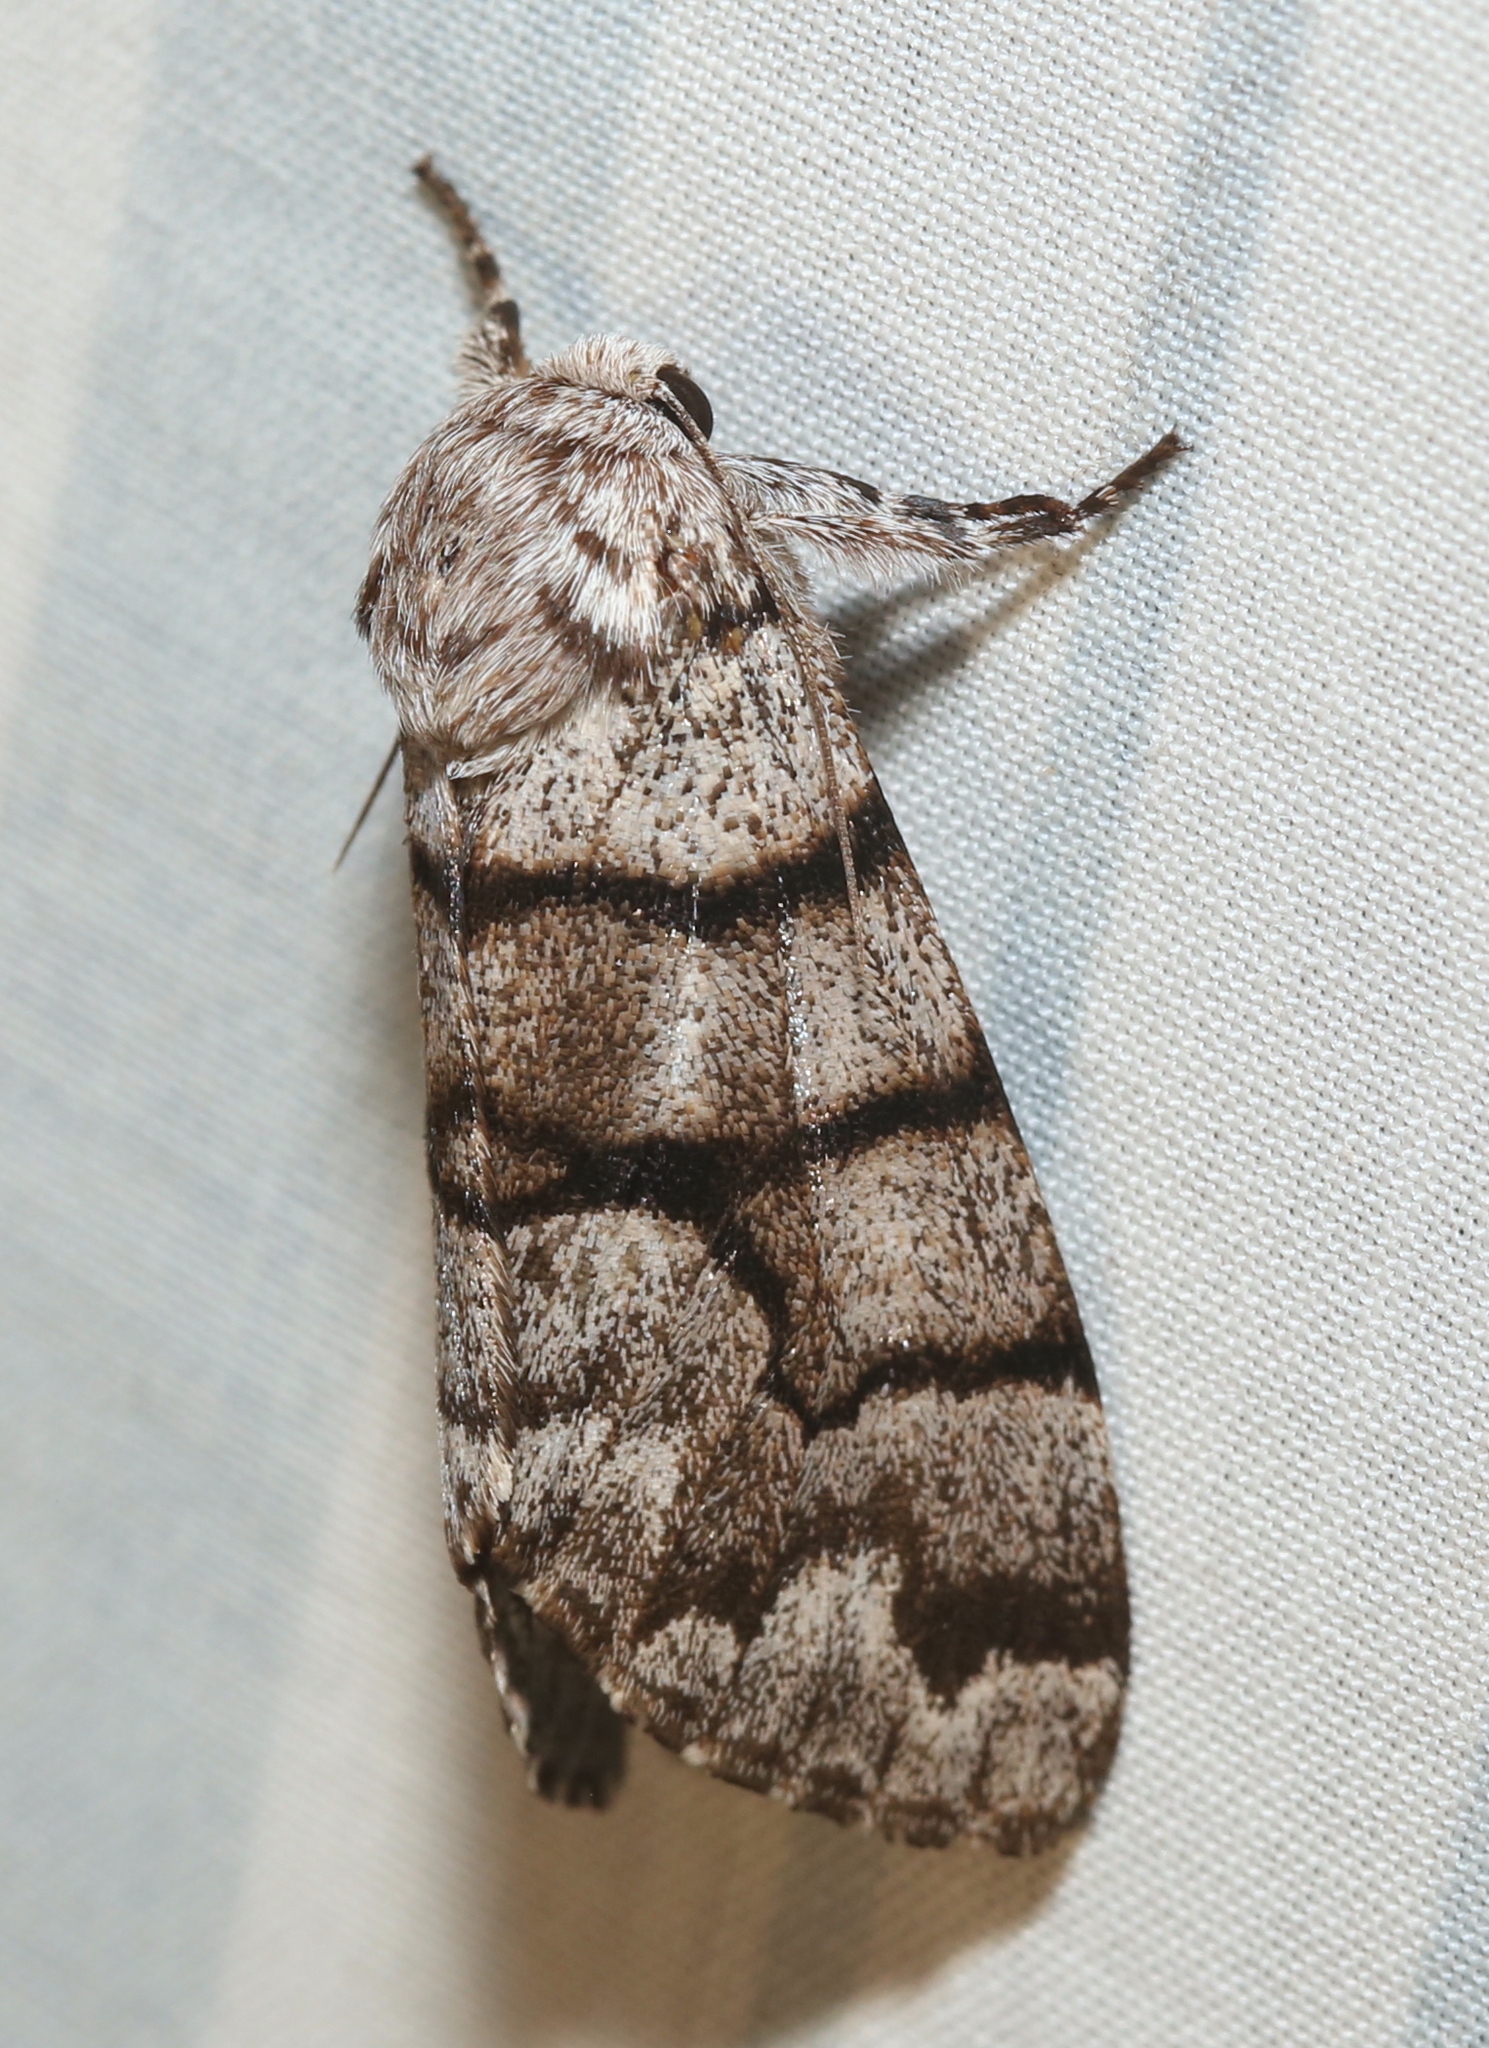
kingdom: Animalia
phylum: Arthropoda
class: Insecta
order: Lepidoptera
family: Noctuidae
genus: Panthea
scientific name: Panthea furcilla
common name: Eastern panthea moth
